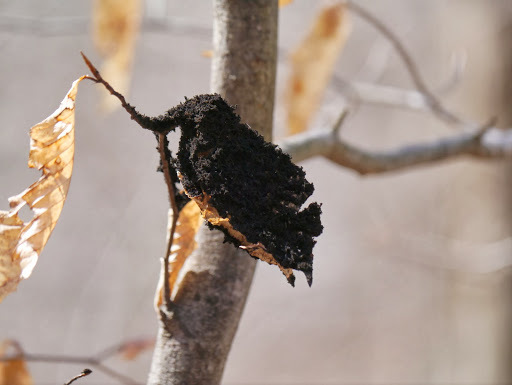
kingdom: Fungi
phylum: Ascomycota
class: Dothideomycetes
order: Capnodiales
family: Capnodiaceae
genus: Scorias
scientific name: Scorias spongiosa
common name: Black sooty mold
